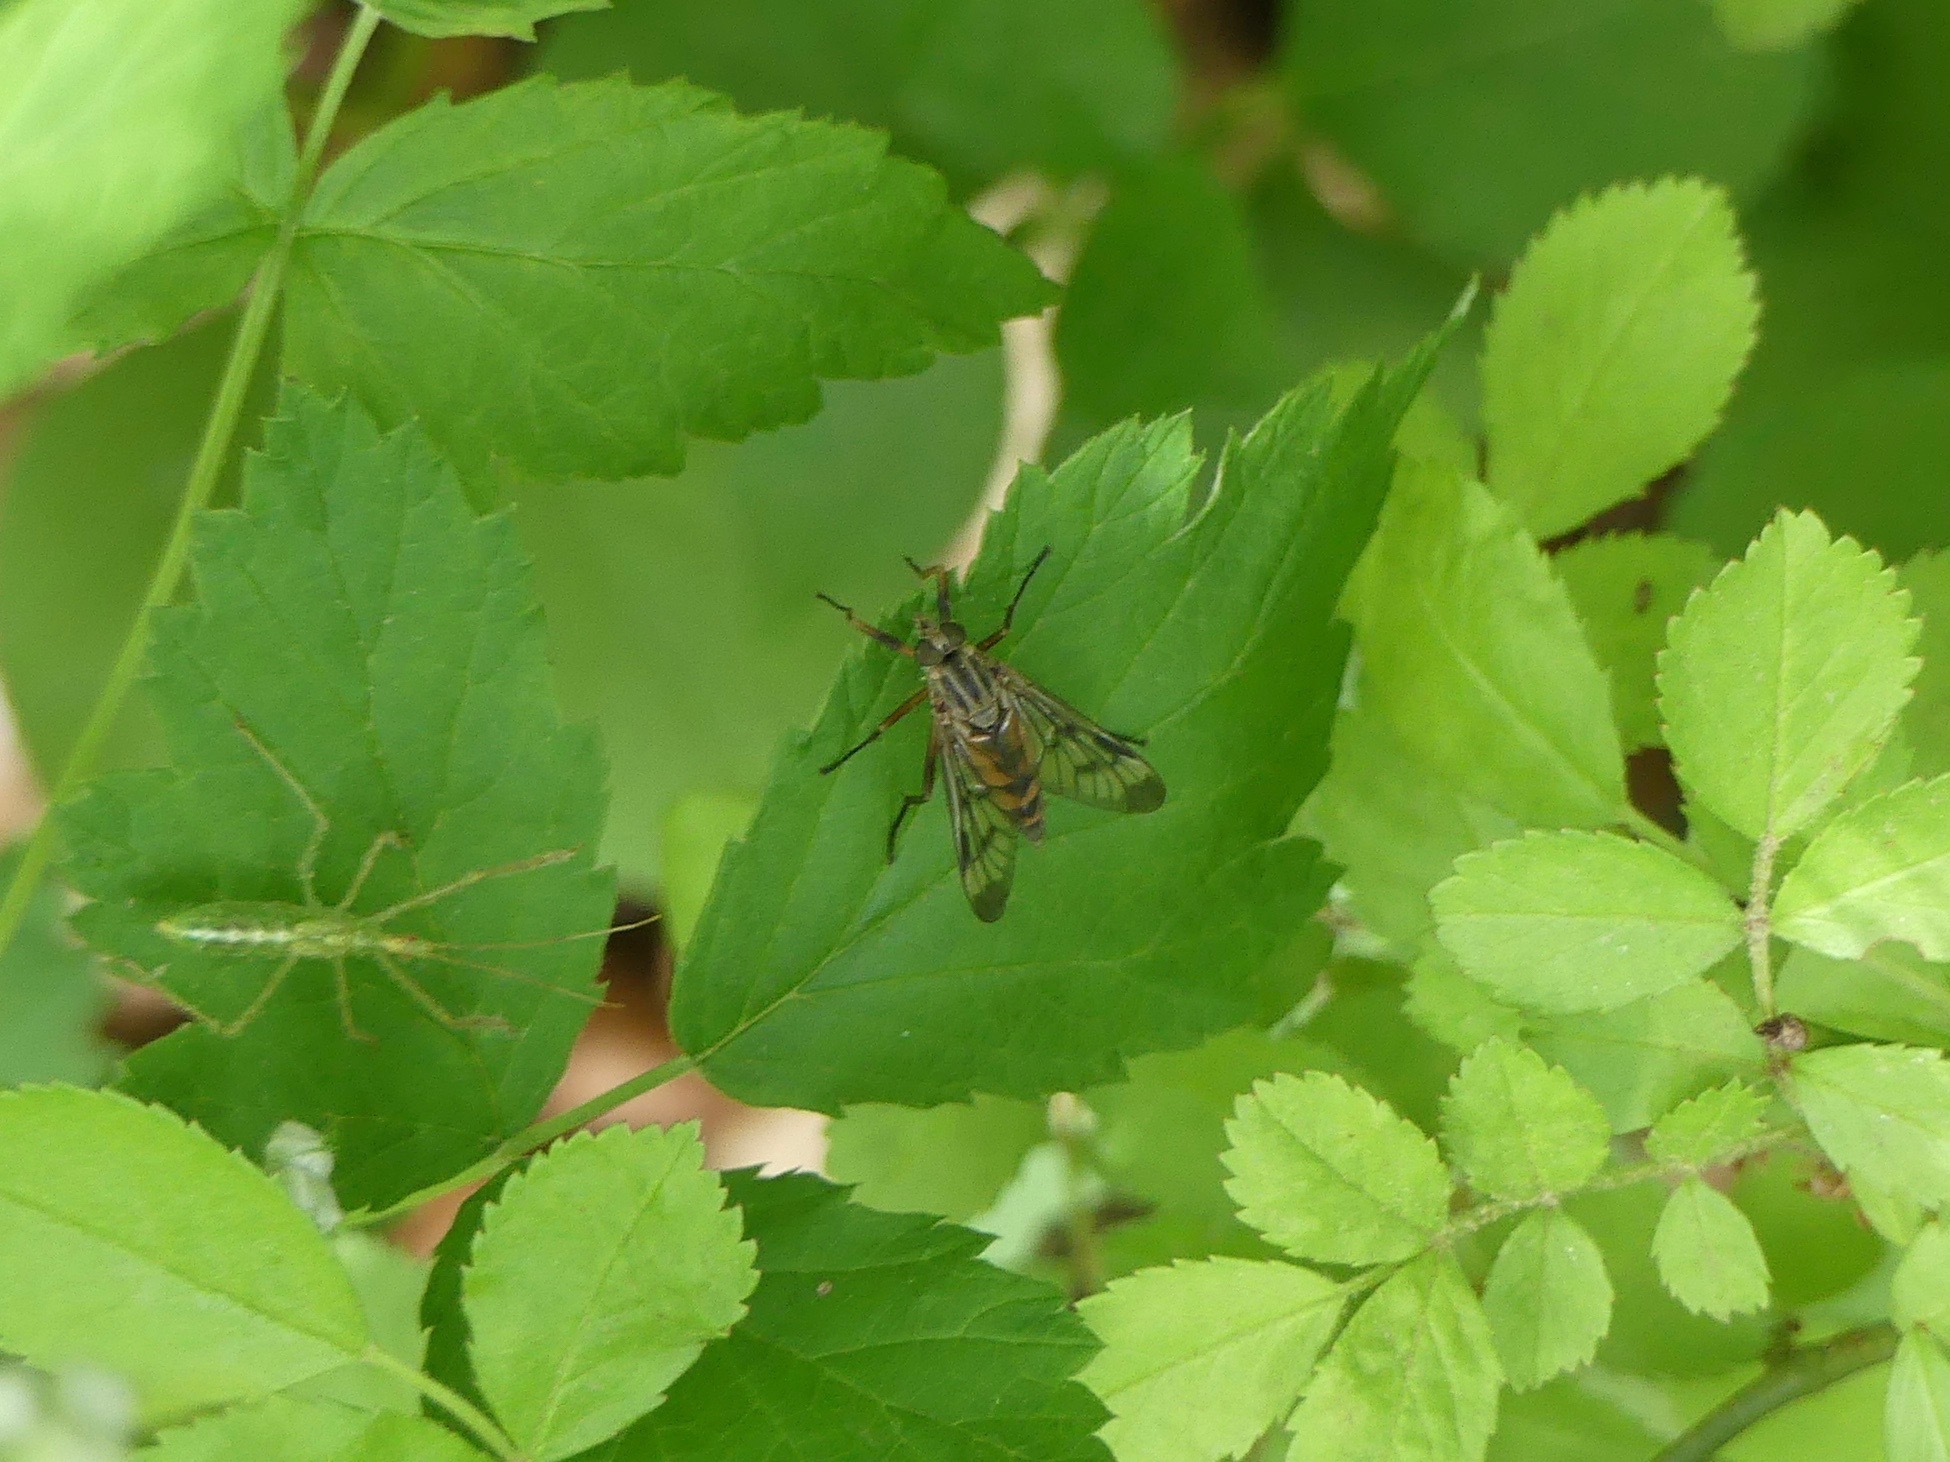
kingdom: Animalia
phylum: Arthropoda
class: Insecta
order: Diptera
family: Rhagionidae
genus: Rhagio
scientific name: Rhagio scolopacea
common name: Downlooker snipefly
